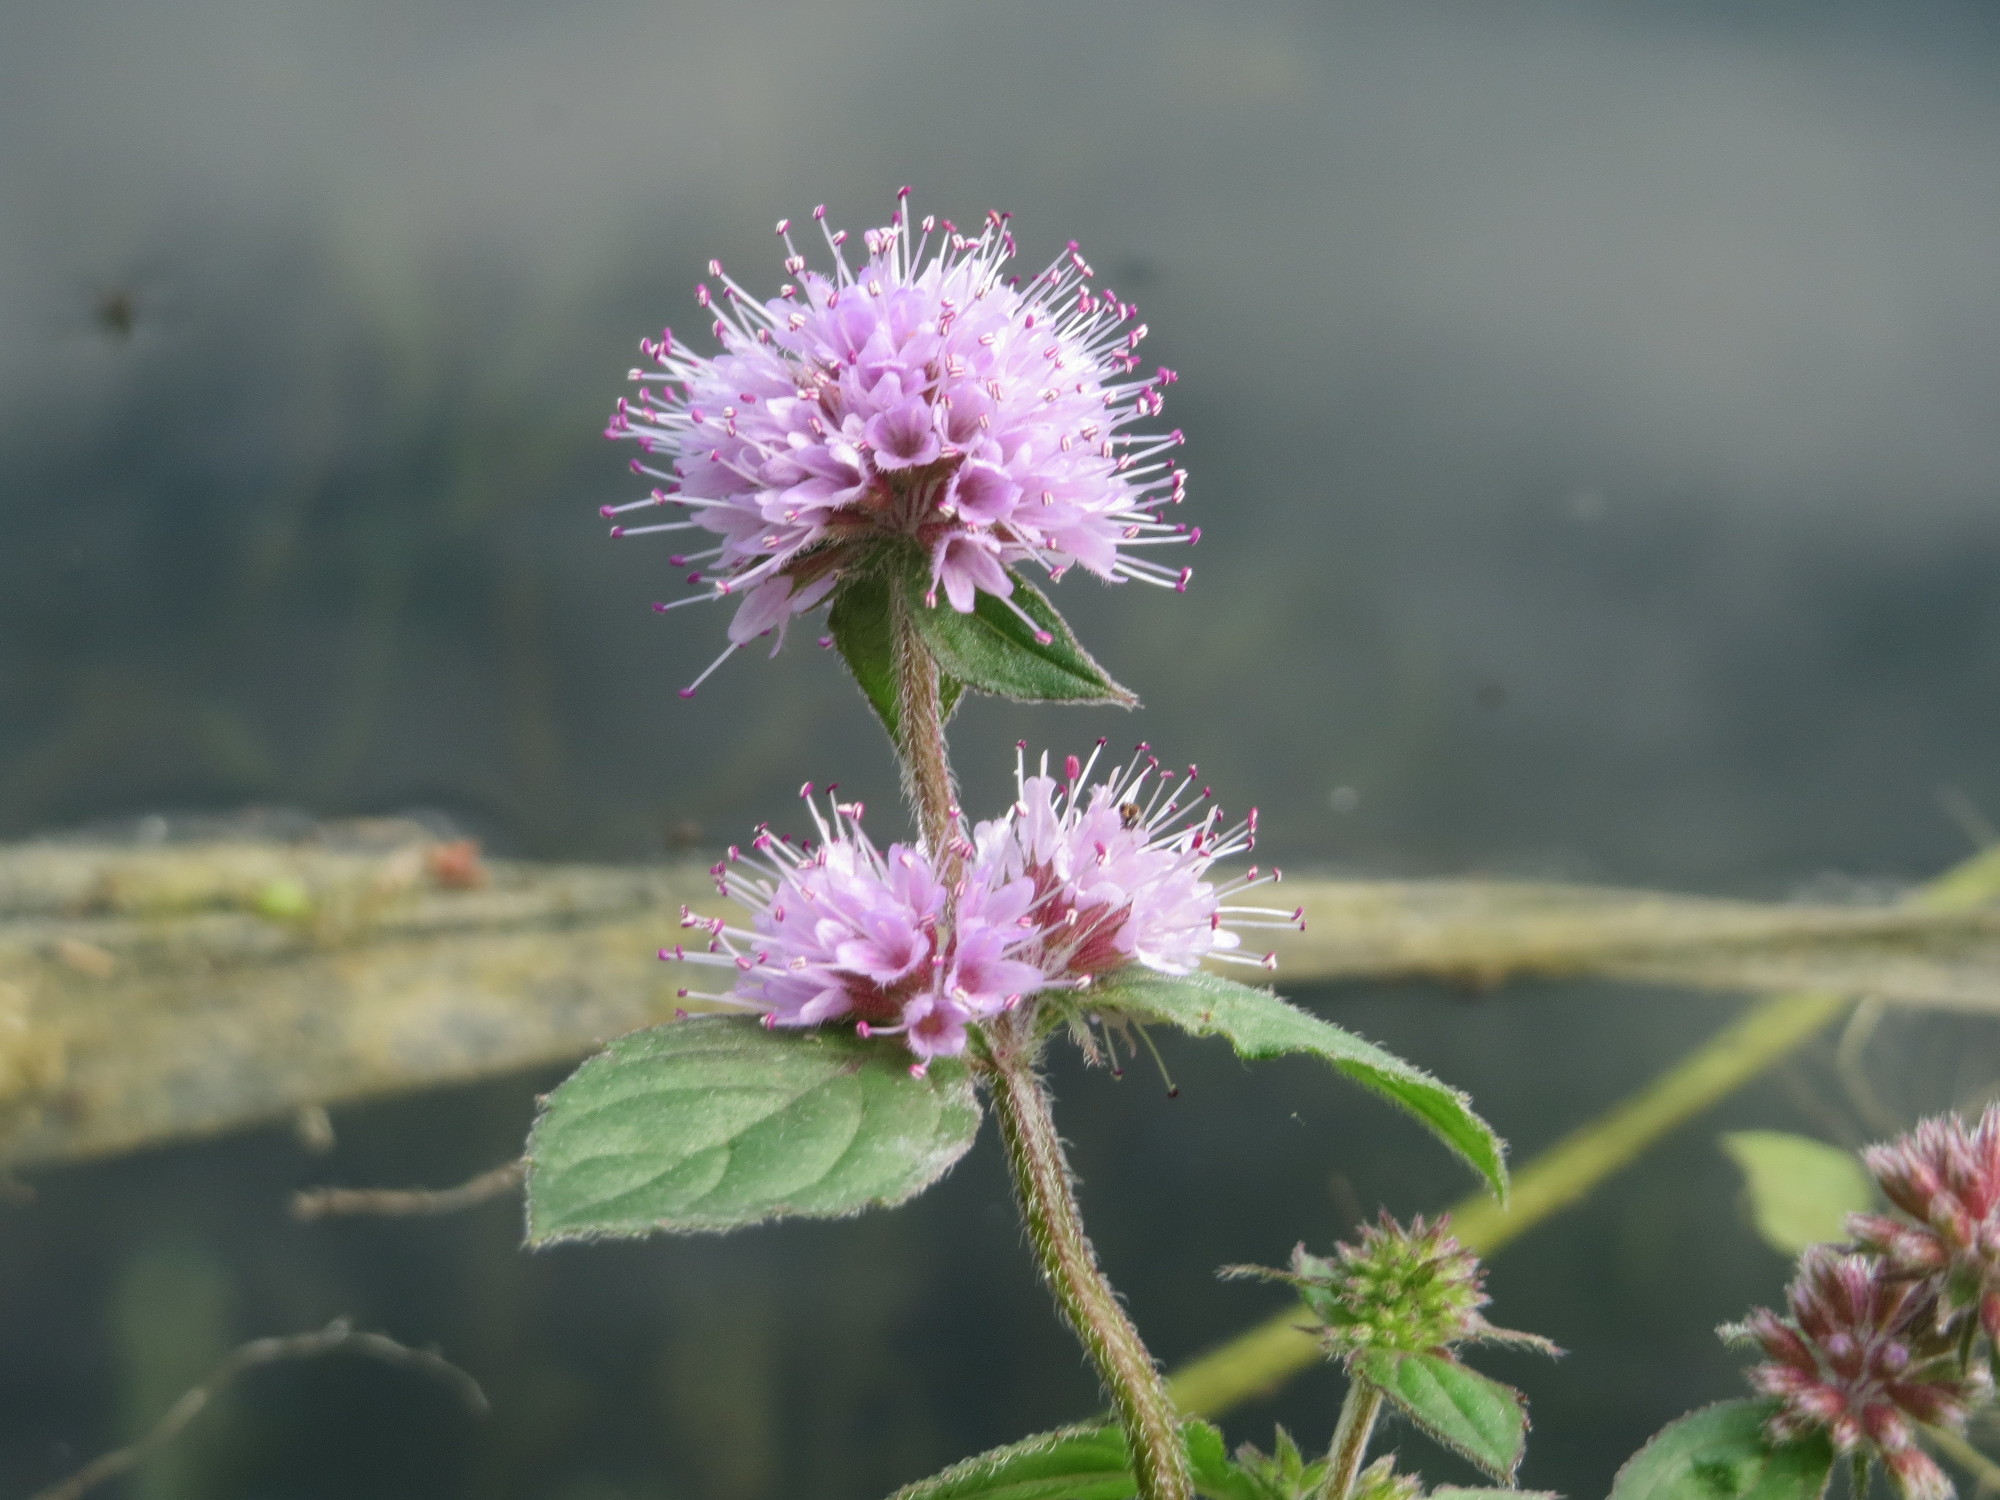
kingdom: Plantae
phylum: Tracheophyta
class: Magnoliopsida
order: Lamiales
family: Lamiaceae
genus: Mentha
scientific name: Mentha aquatica
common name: Water mint
